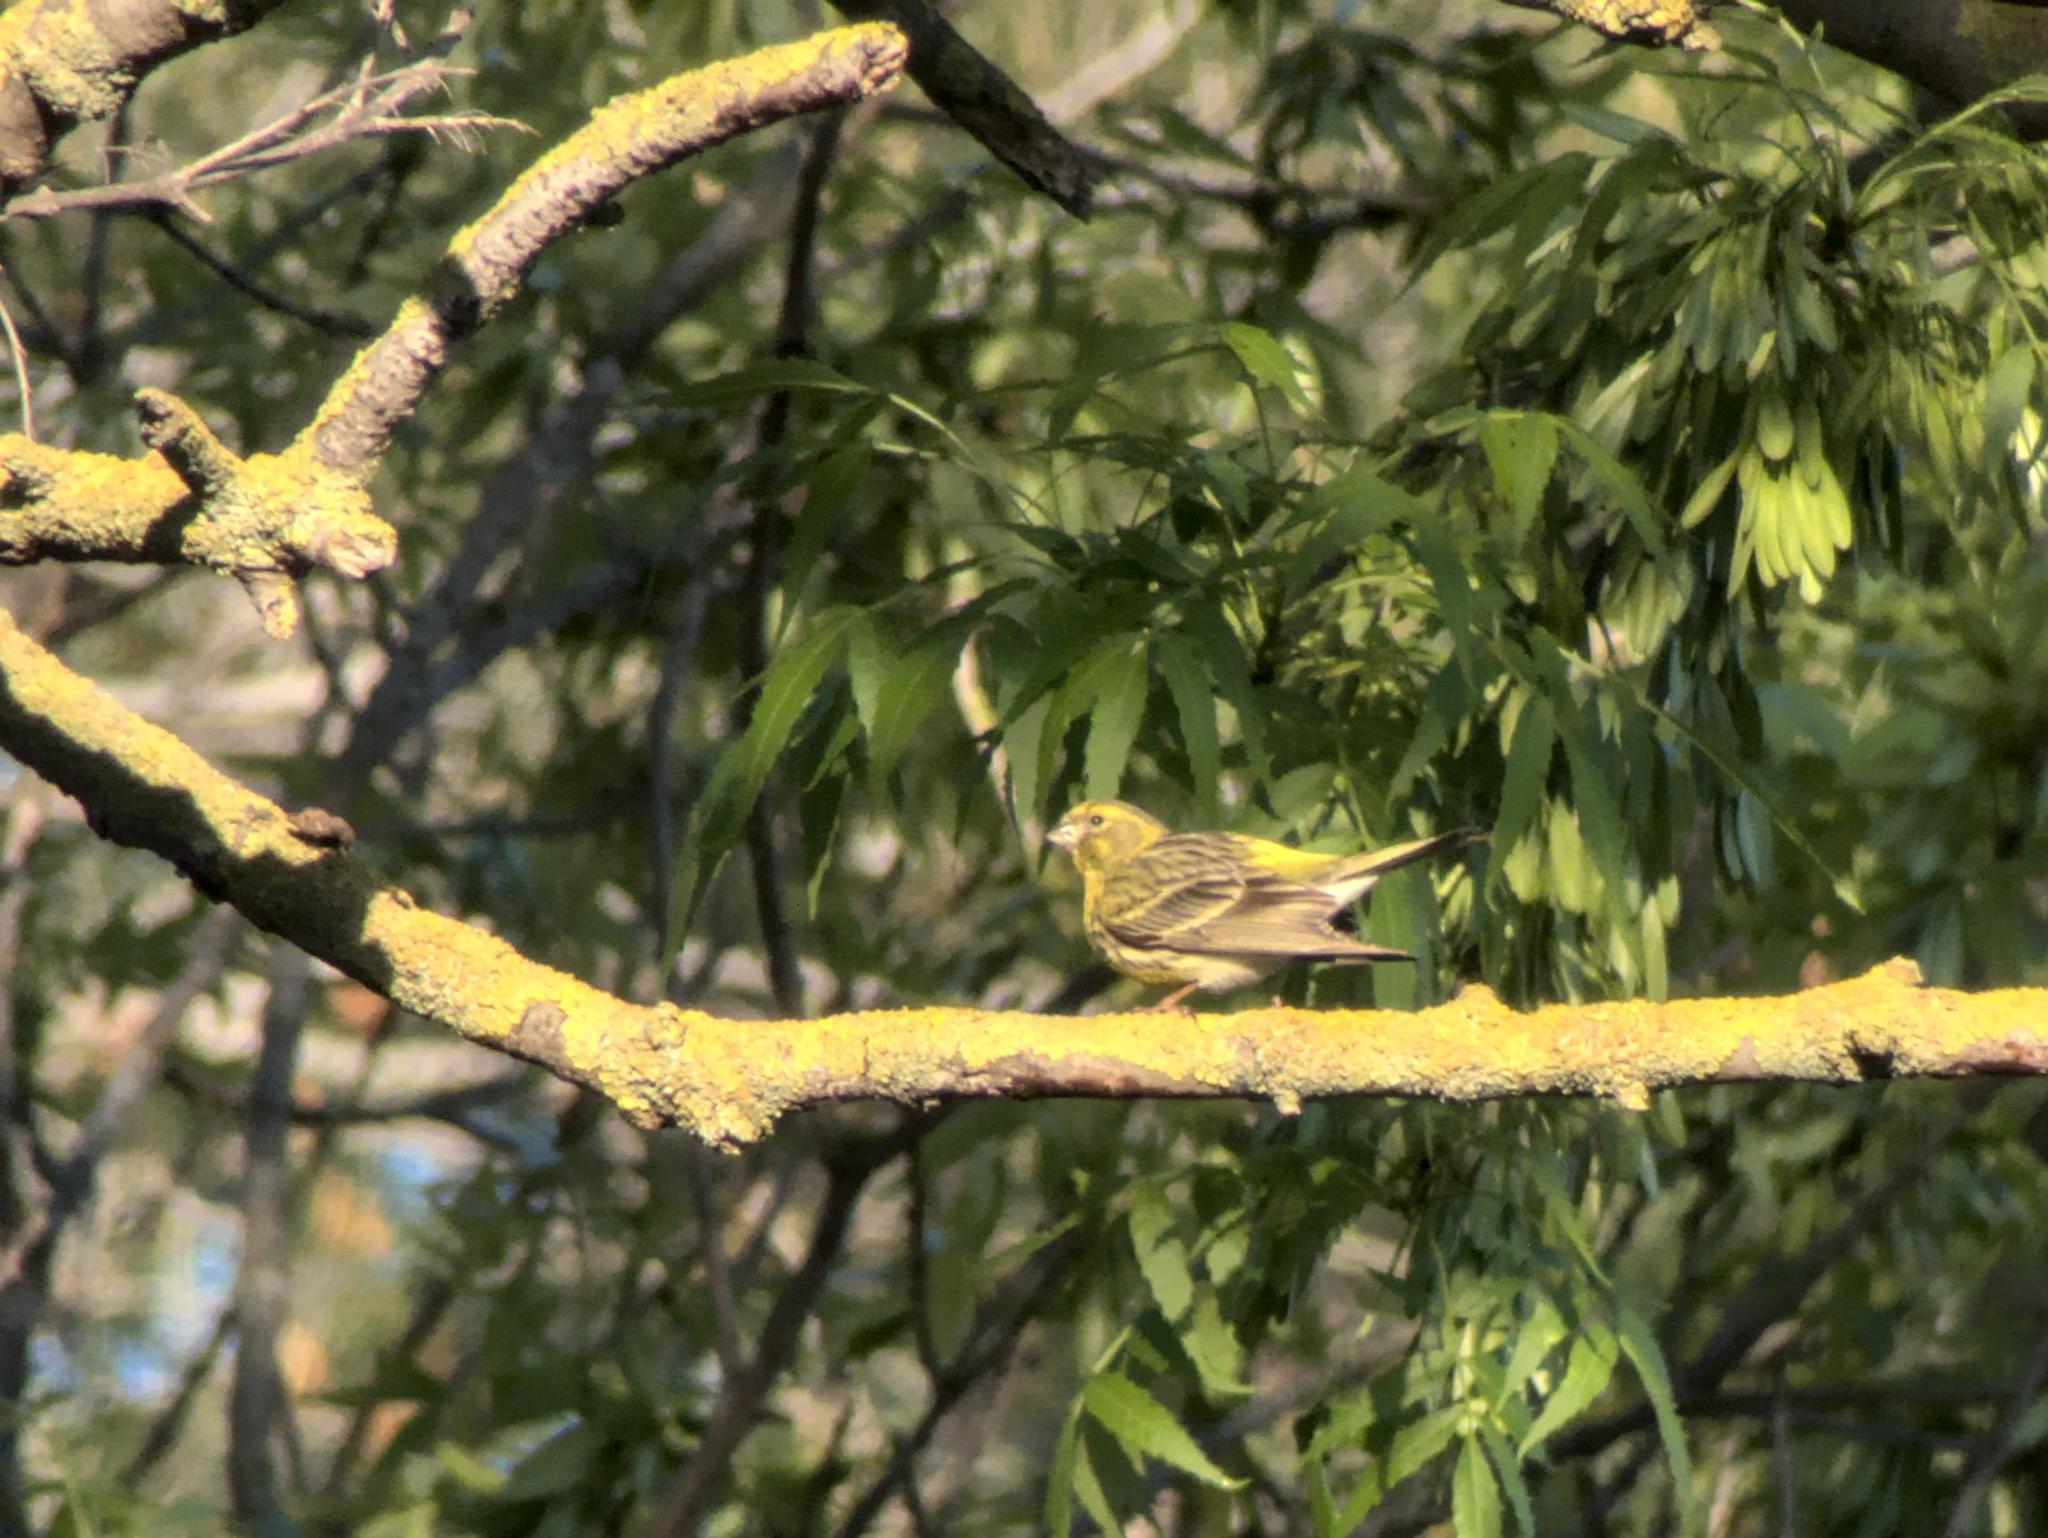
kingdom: Animalia
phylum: Chordata
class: Aves
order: Passeriformes
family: Fringillidae
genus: Serinus
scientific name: Serinus serinus
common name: European serin
